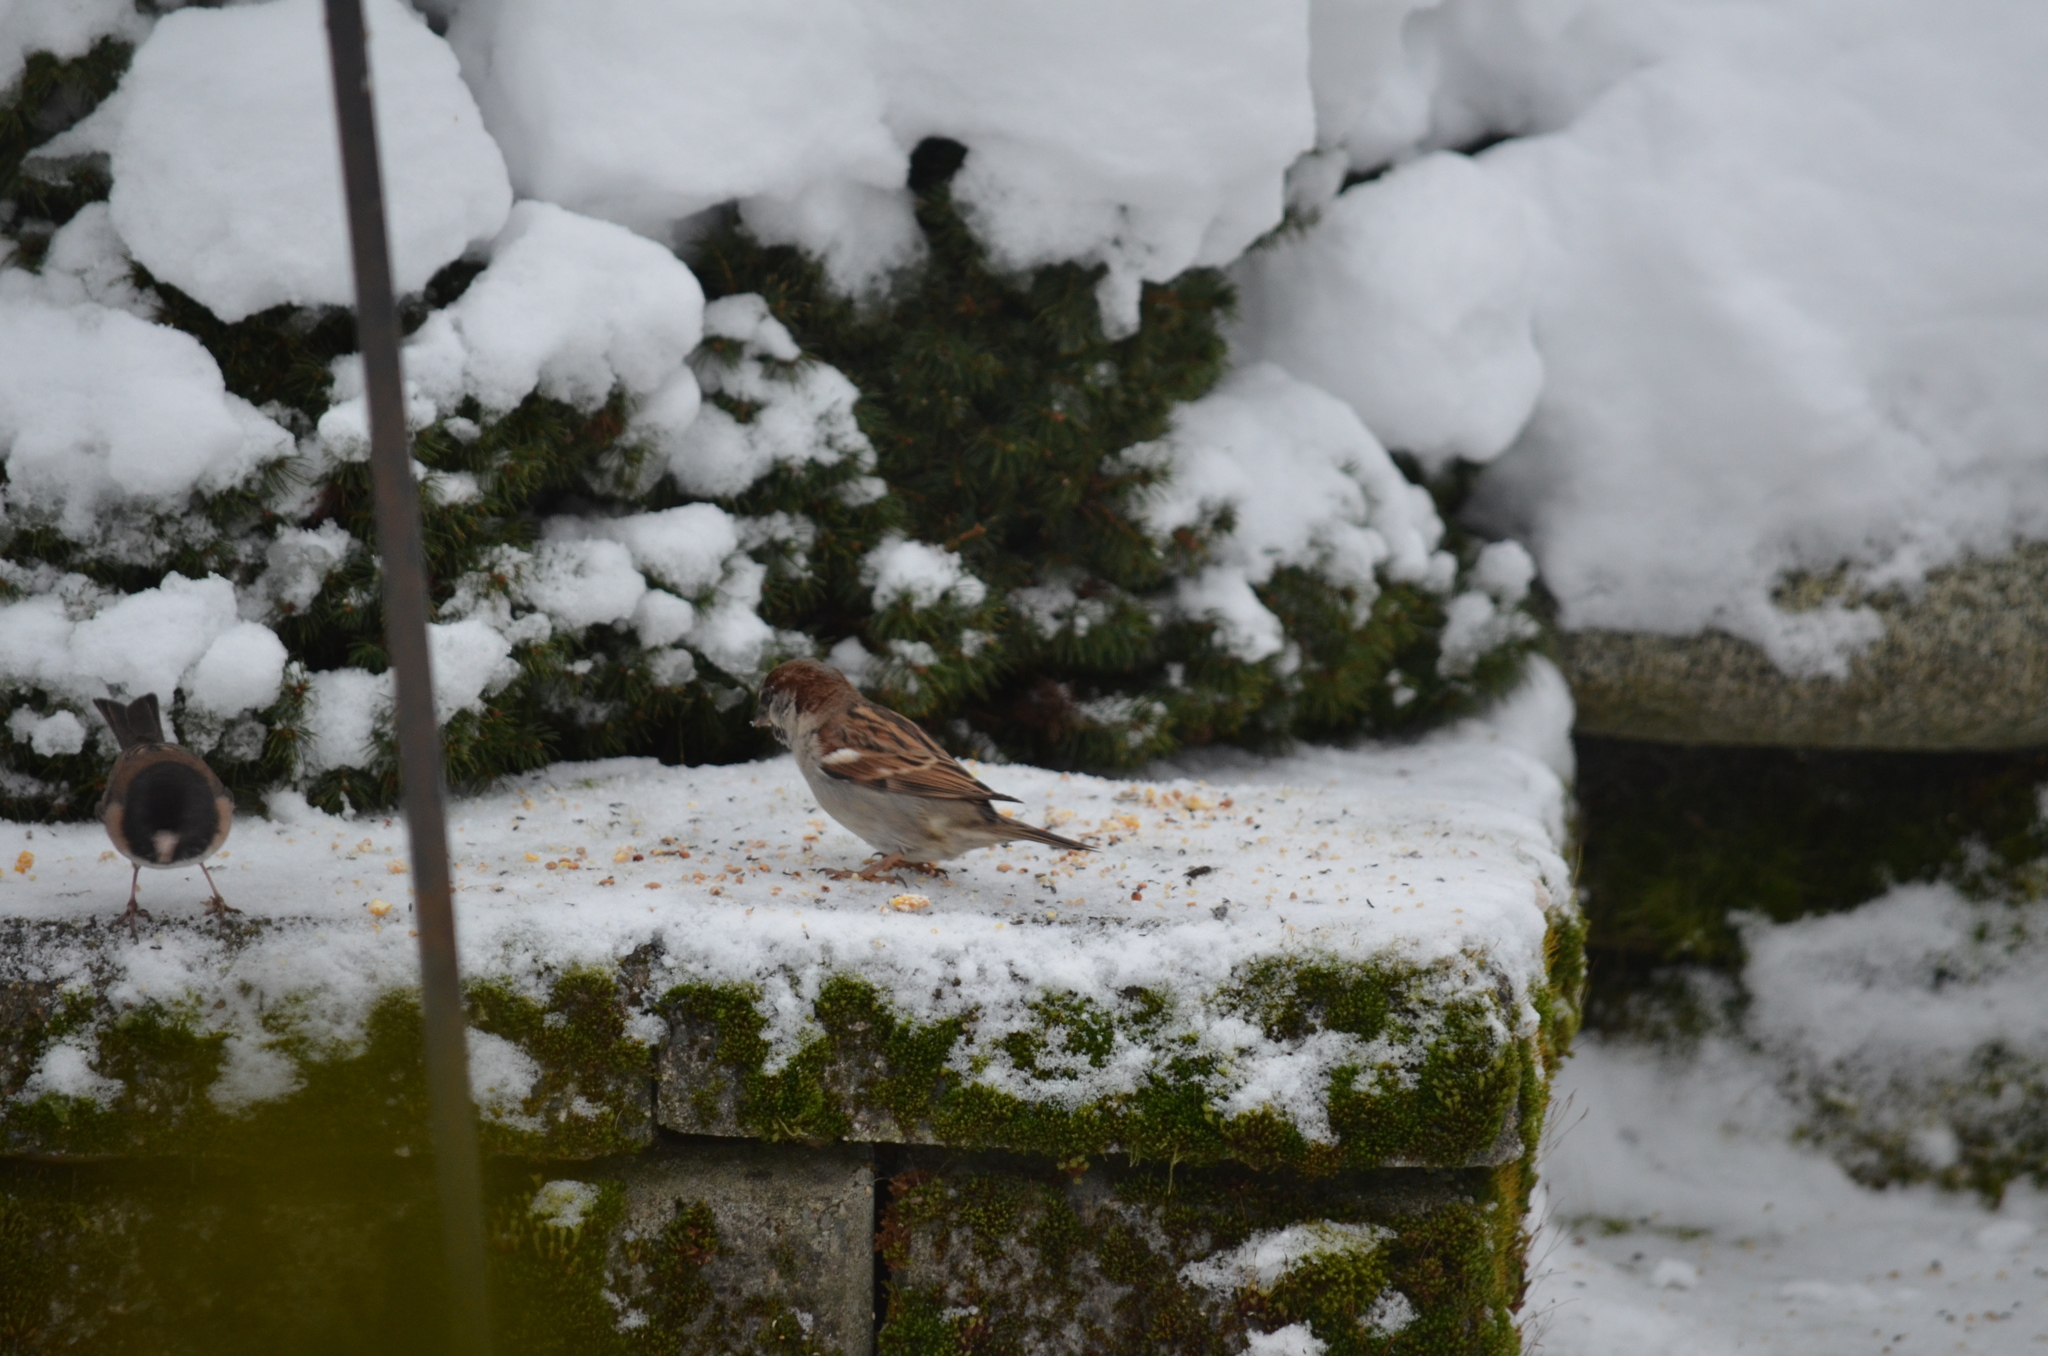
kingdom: Animalia
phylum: Chordata
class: Aves
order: Passeriformes
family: Passeridae
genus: Passer
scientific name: Passer domesticus
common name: House sparrow
